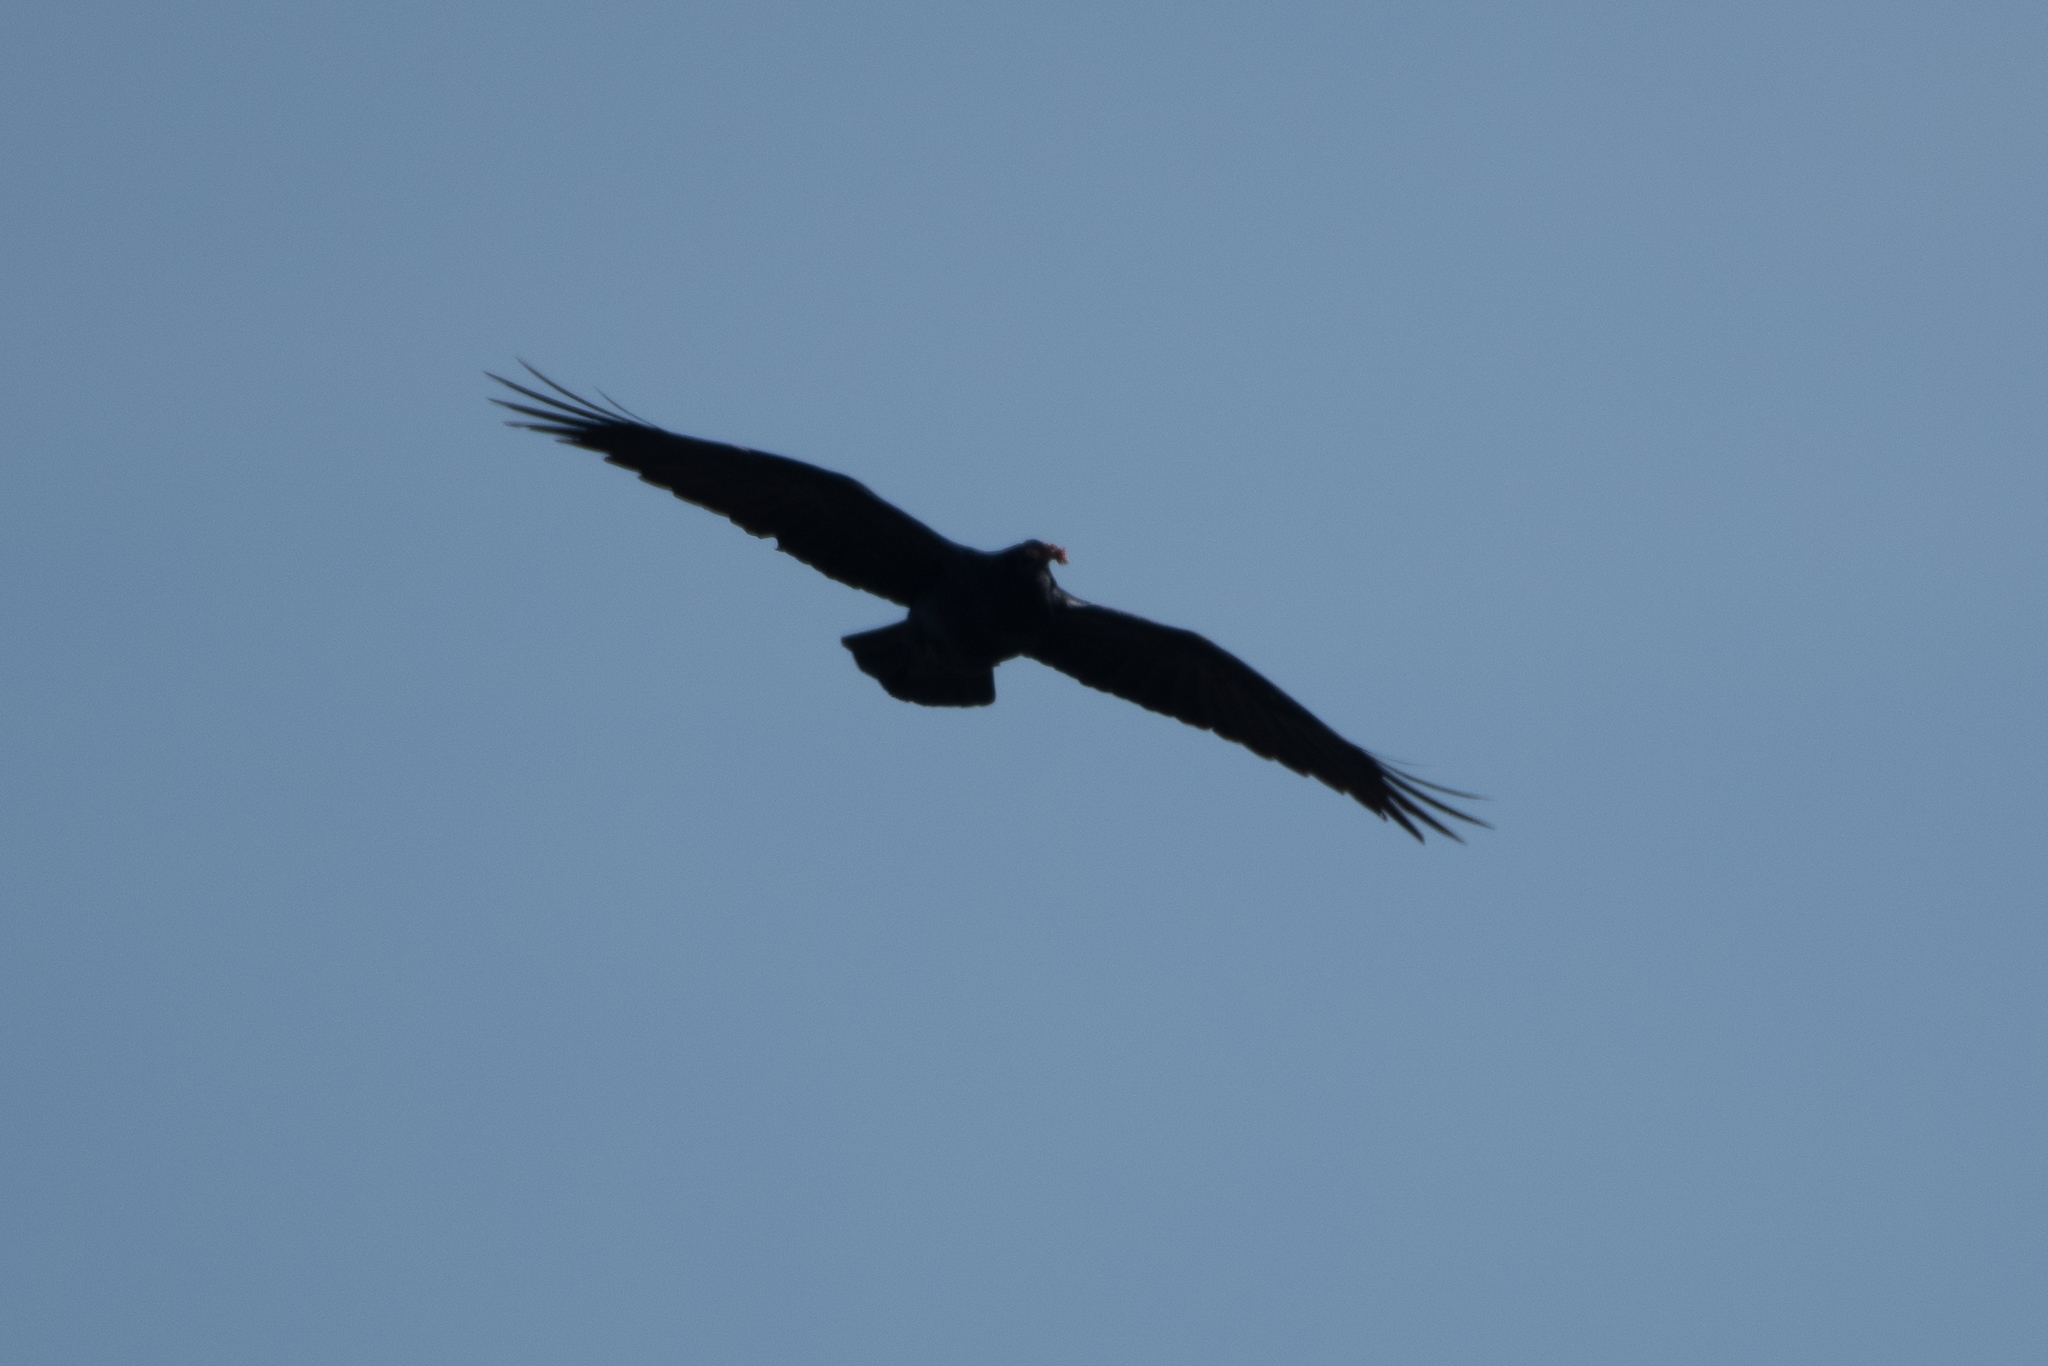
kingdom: Animalia
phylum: Chordata
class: Aves
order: Passeriformes
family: Corvidae
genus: Corvus
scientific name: Corvus corax
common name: Common raven
